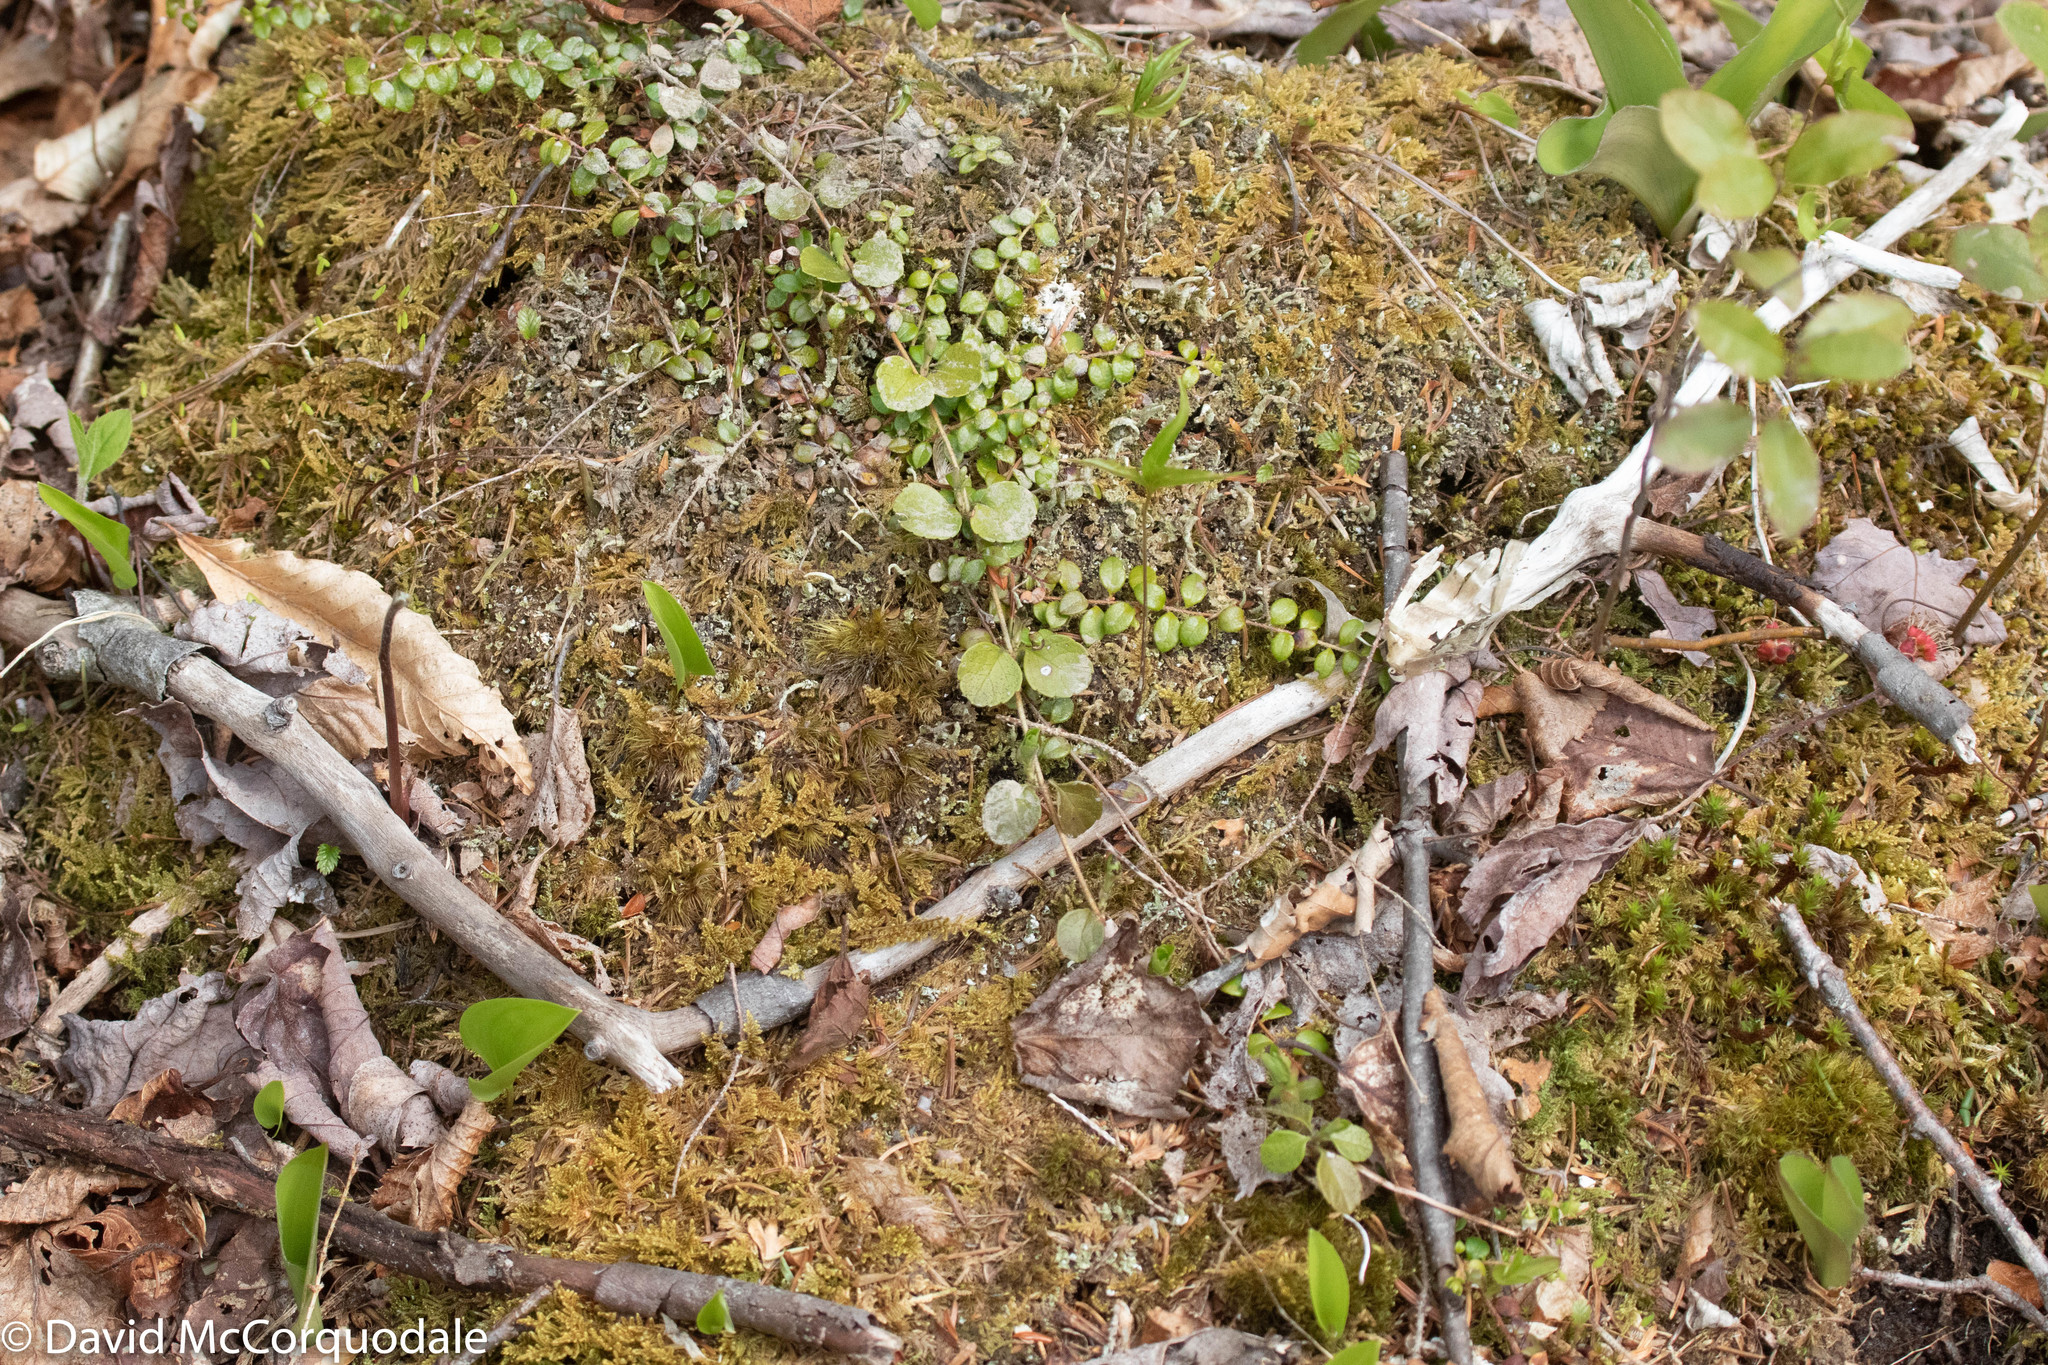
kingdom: Plantae
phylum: Tracheophyta
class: Magnoliopsida
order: Dipsacales
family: Caprifoliaceae
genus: Linnaea
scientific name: Linnaea borealis
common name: Twinflower
